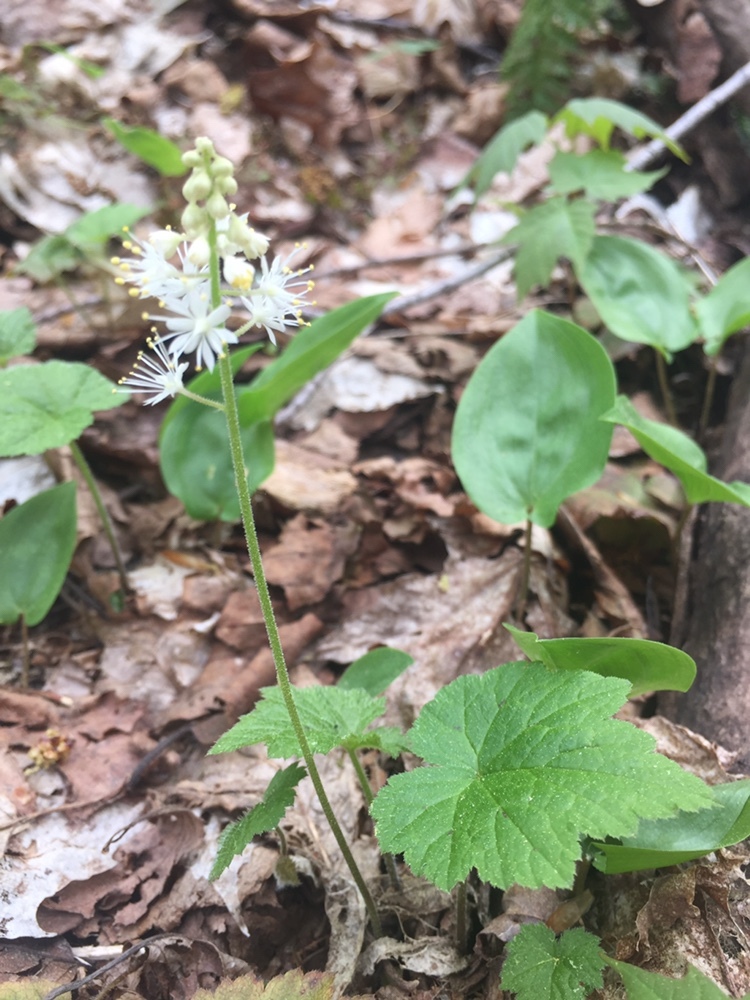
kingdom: Plantae
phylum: Tracheophyta
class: Magnoliopsida
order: Saxifragales
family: Saxifragaceae
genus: Tiarella
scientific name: Tiarella stolonifera
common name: Stoloniferous foamflower
